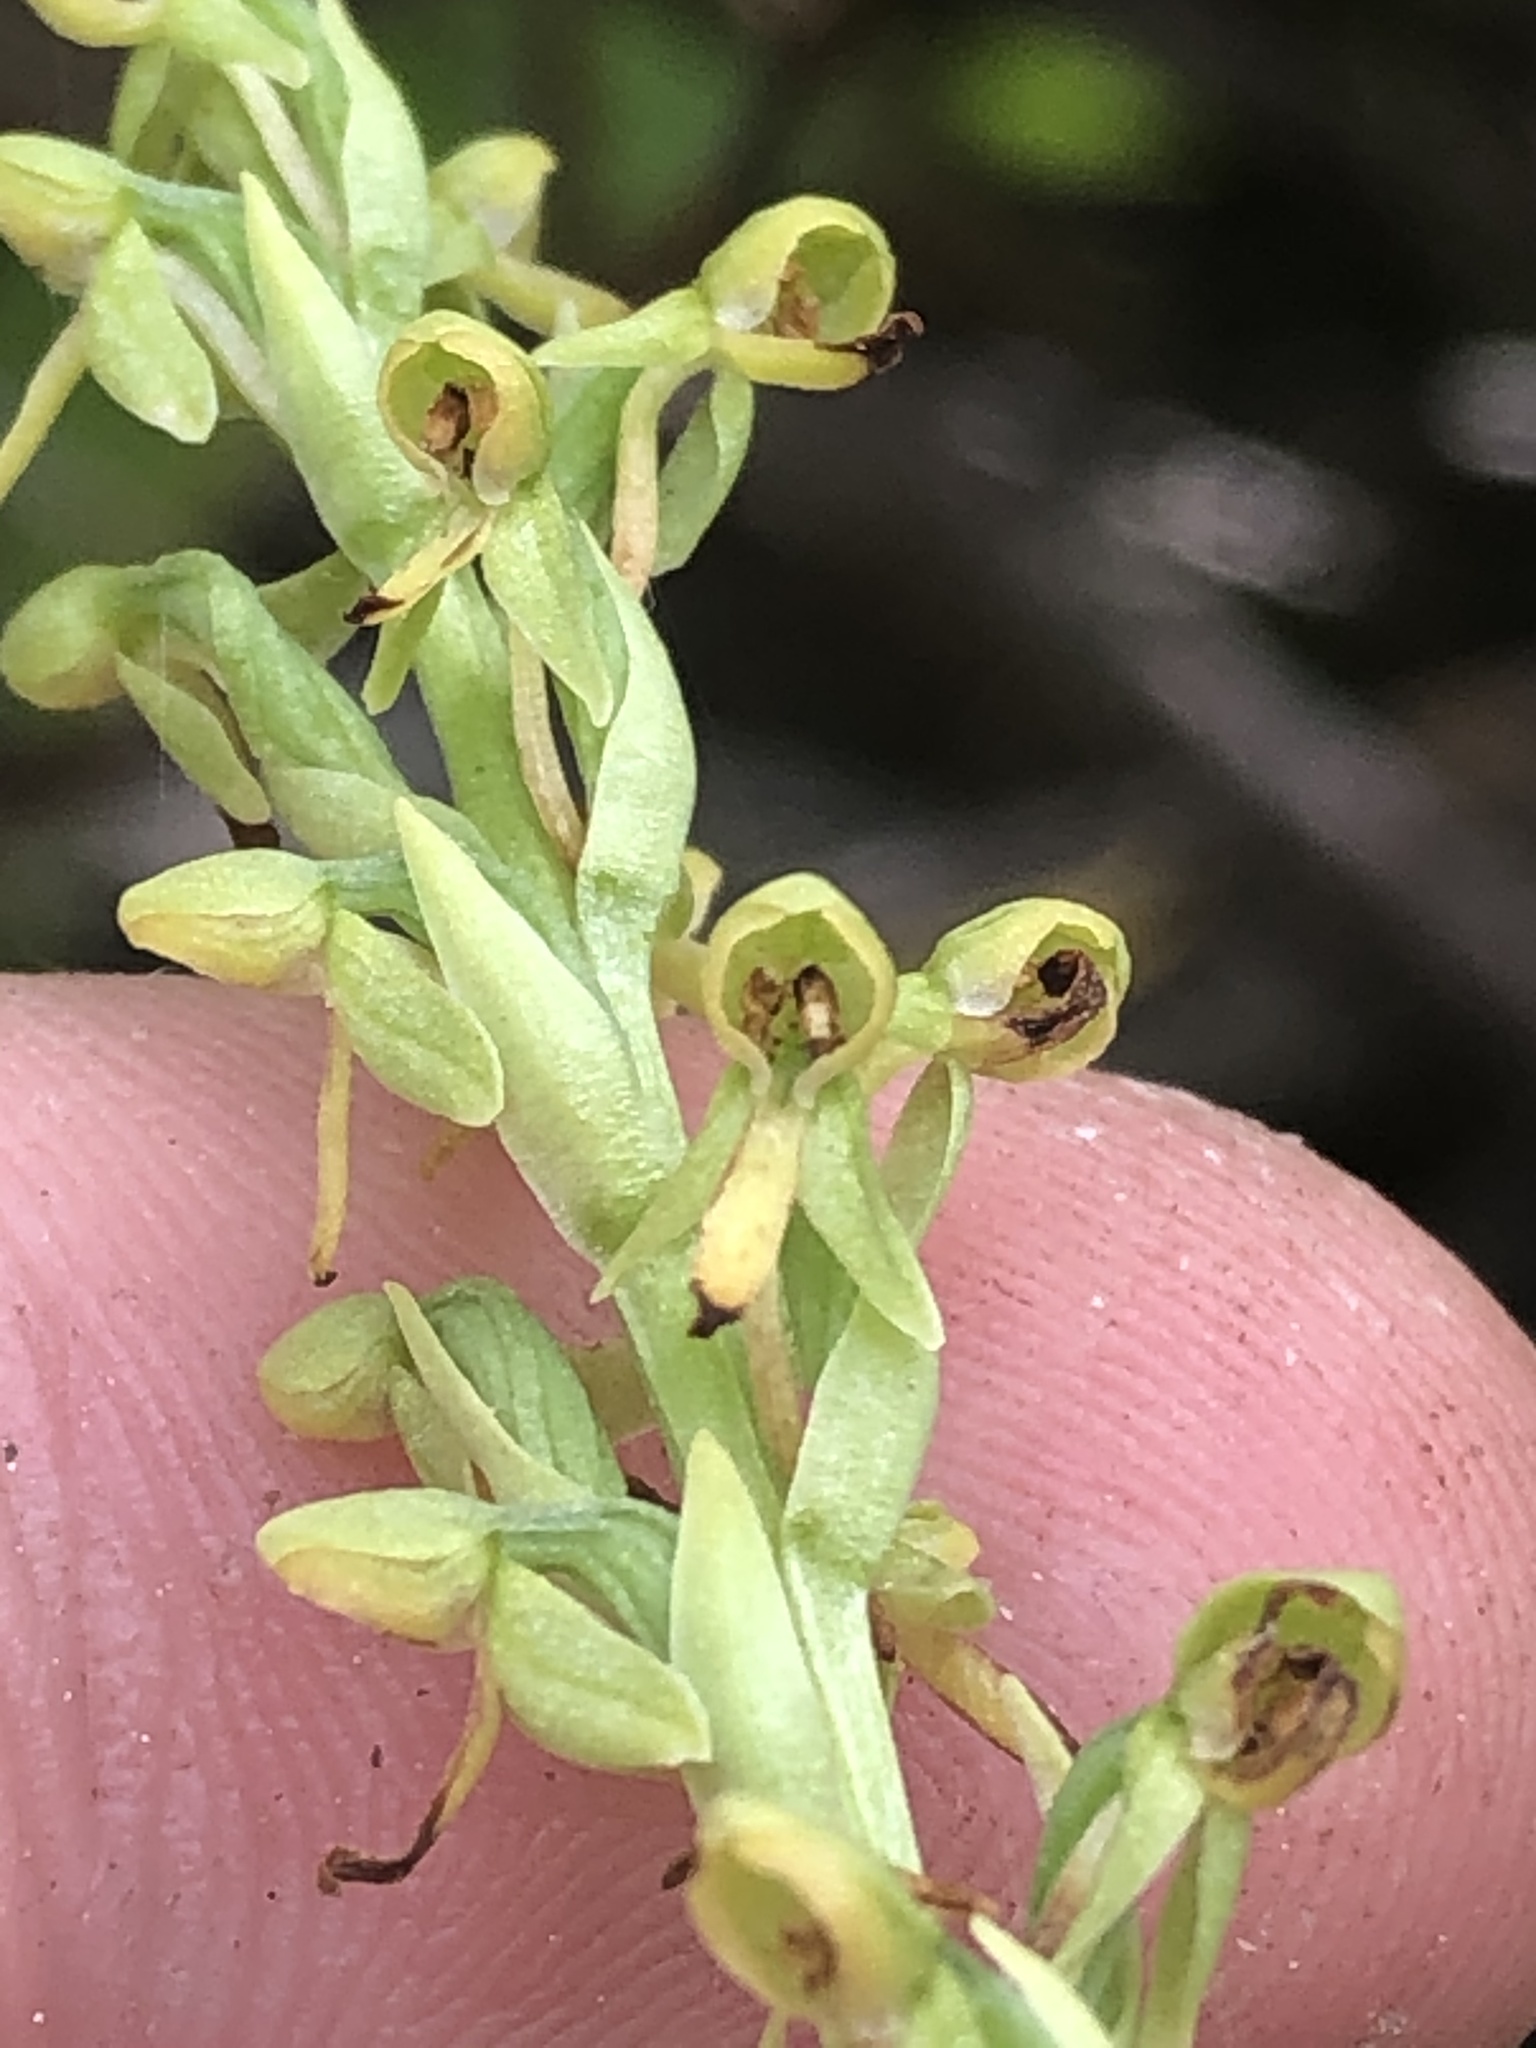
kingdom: Plantae
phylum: Tracheophyta
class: Liliopsida
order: Asparagales
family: Orchidaceae
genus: Platanthera
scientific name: Platanthera sparsiflora
